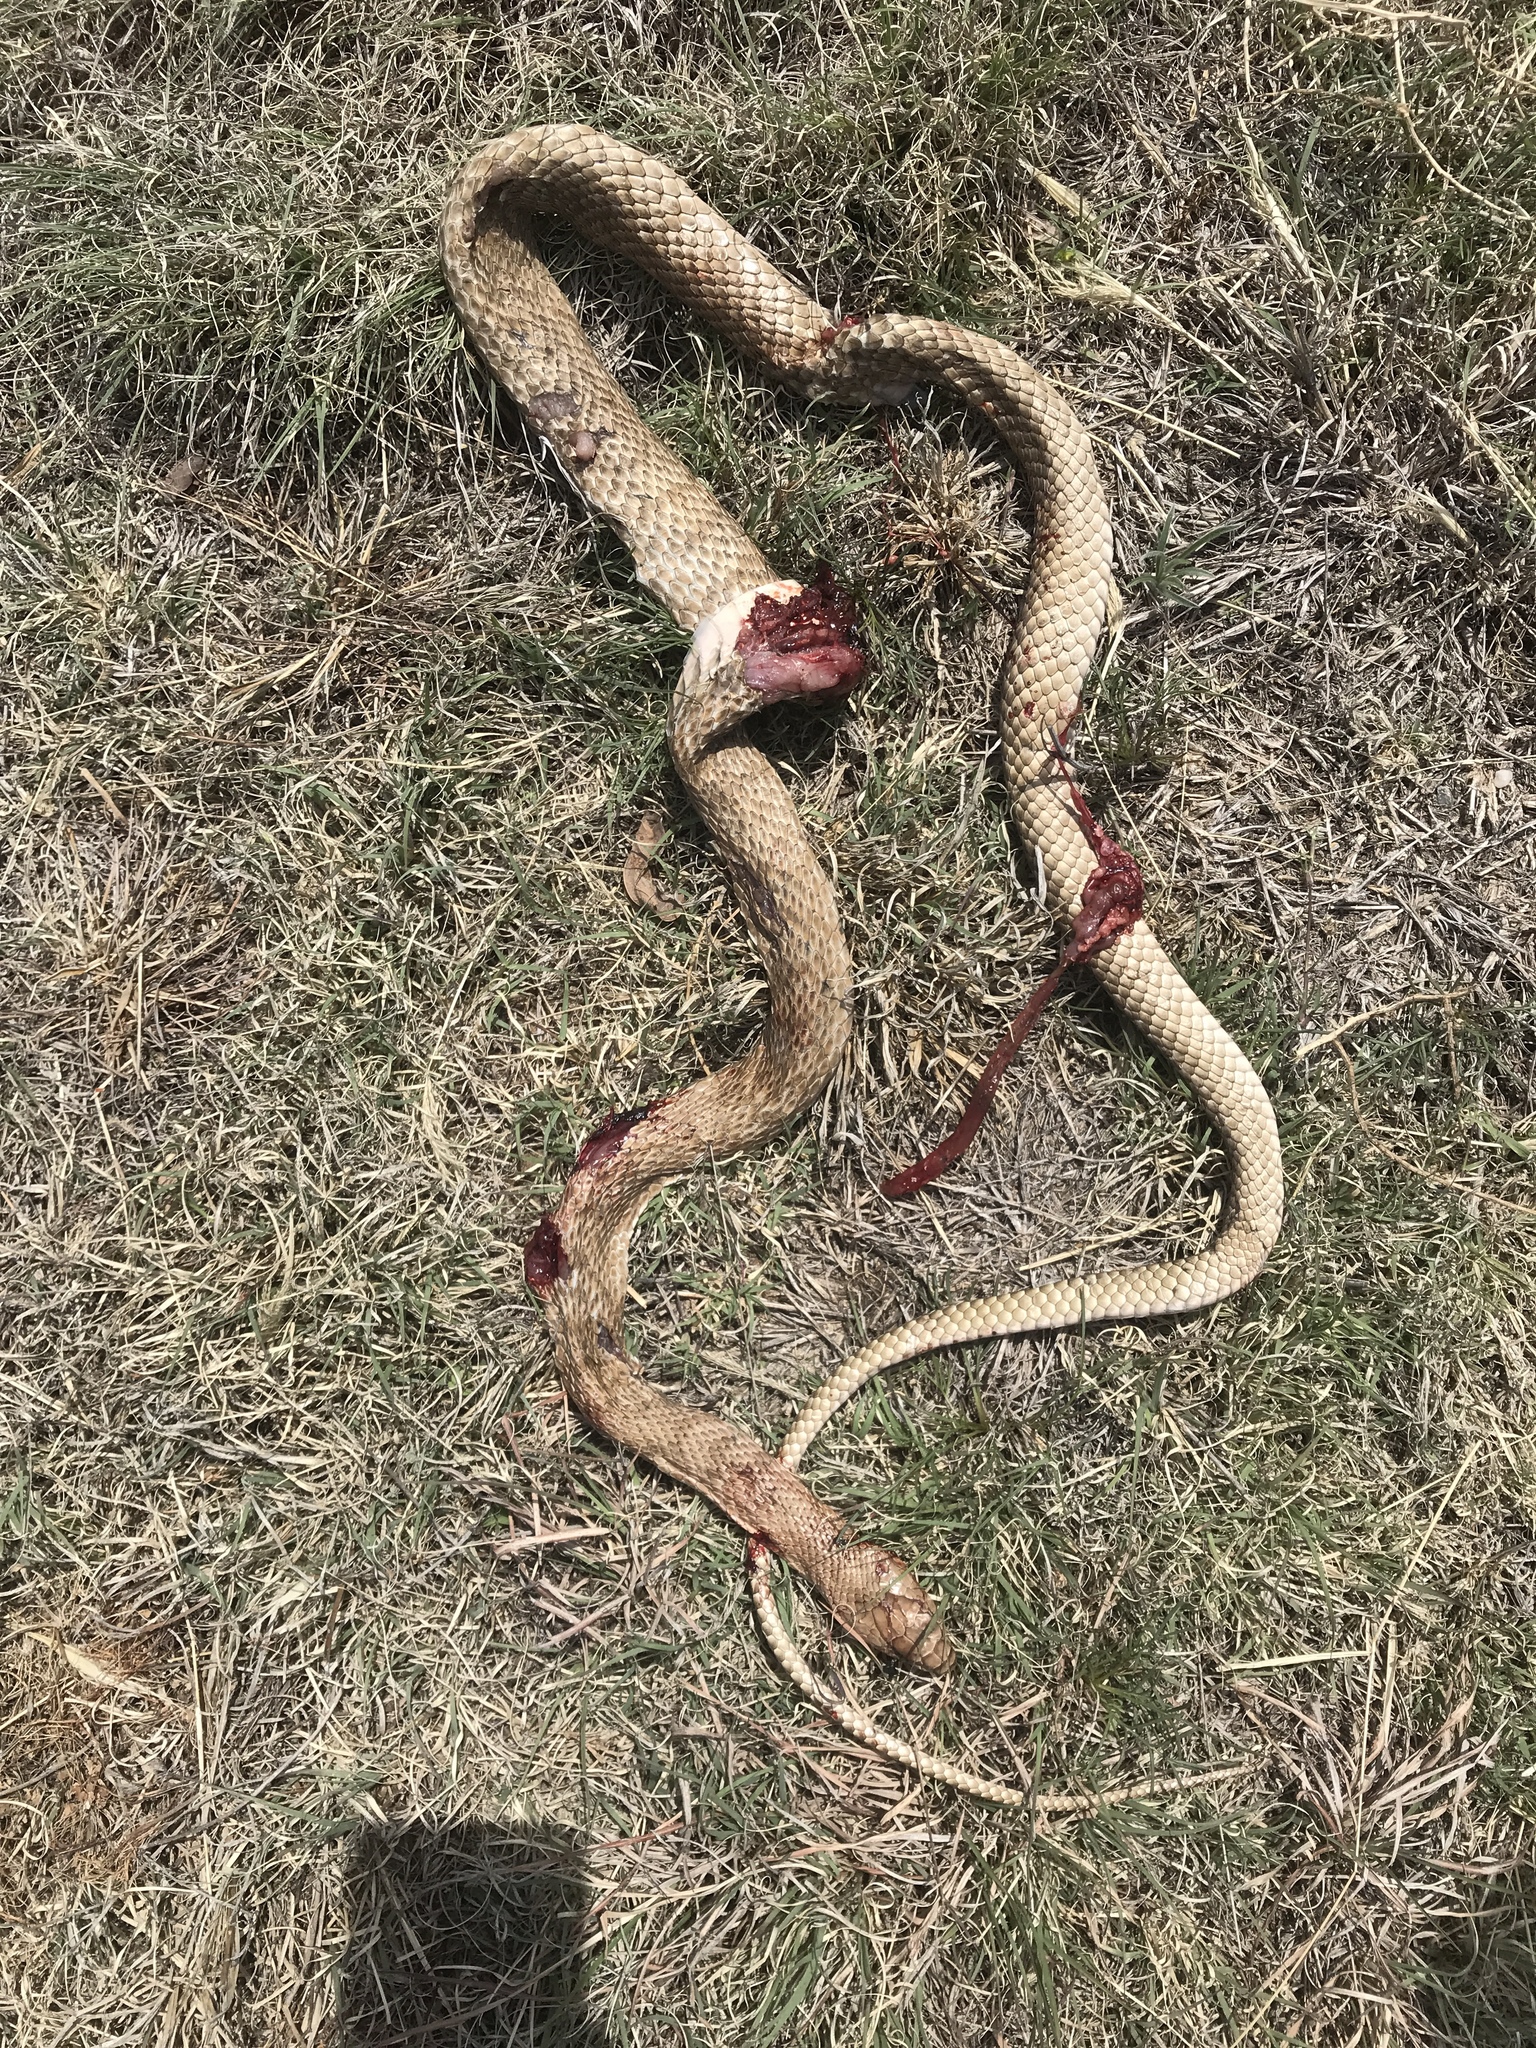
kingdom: Animalia
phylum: Chordata
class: Squamata
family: Colubridae
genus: Masticophis
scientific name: Masticophis flagellum
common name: Coachwhip
